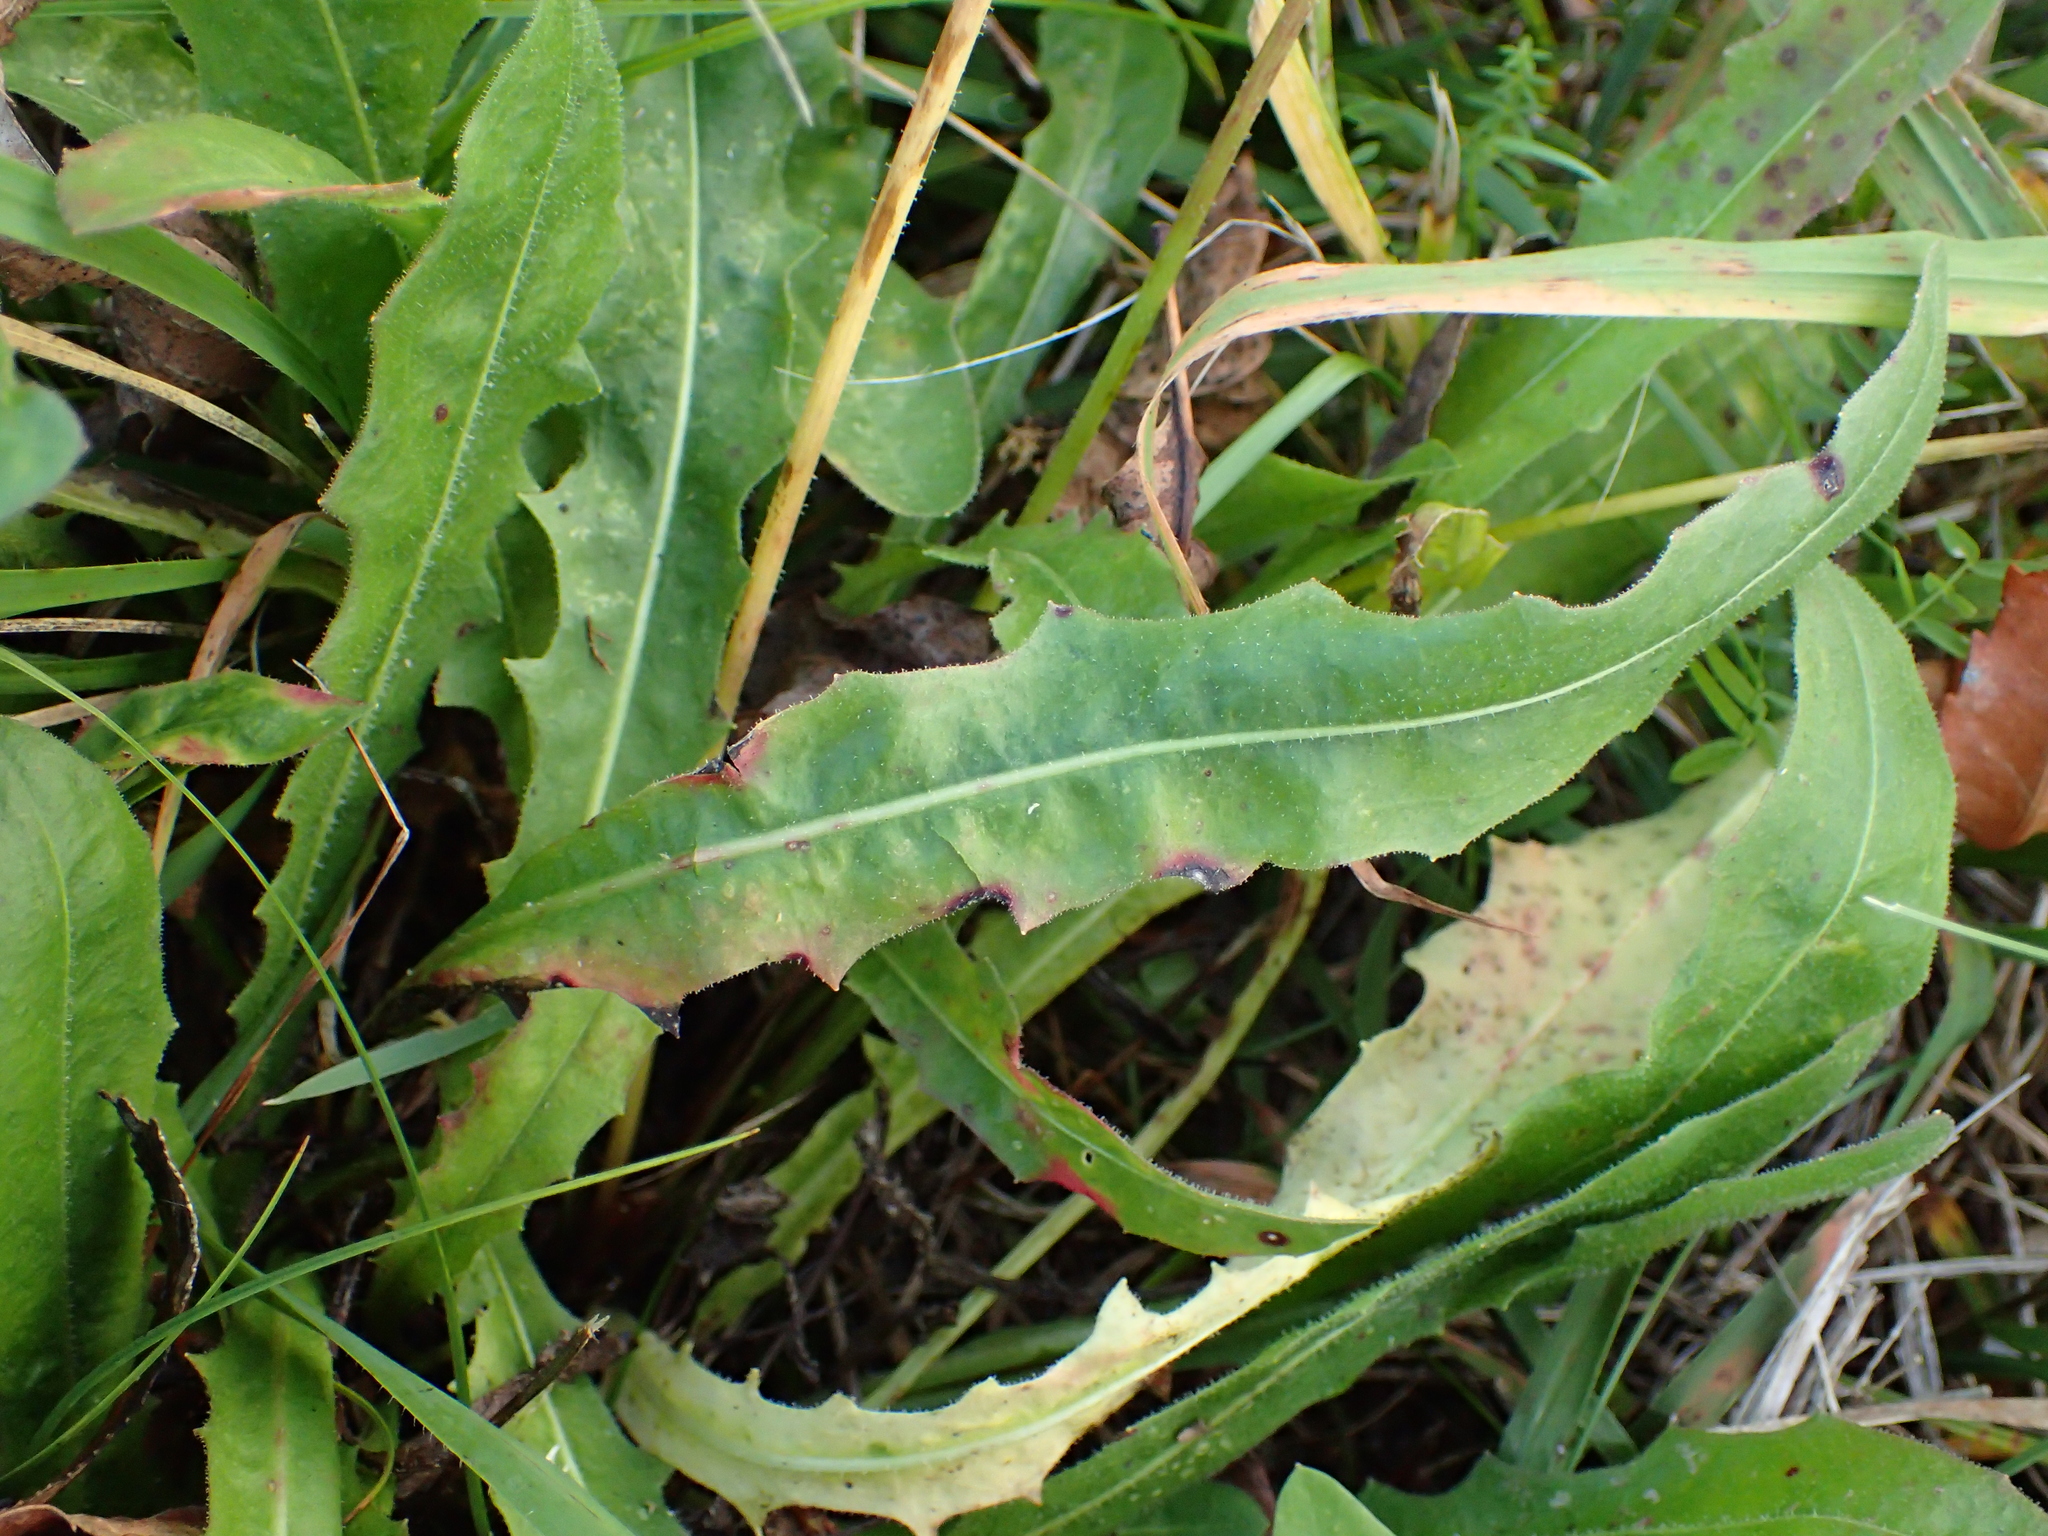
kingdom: Plantae
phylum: Tracheophyta
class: Magnoliopsida
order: Asterales
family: Asteraceae
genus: Leontodon
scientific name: Leontodon hispidus
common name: Rough hawkbit
